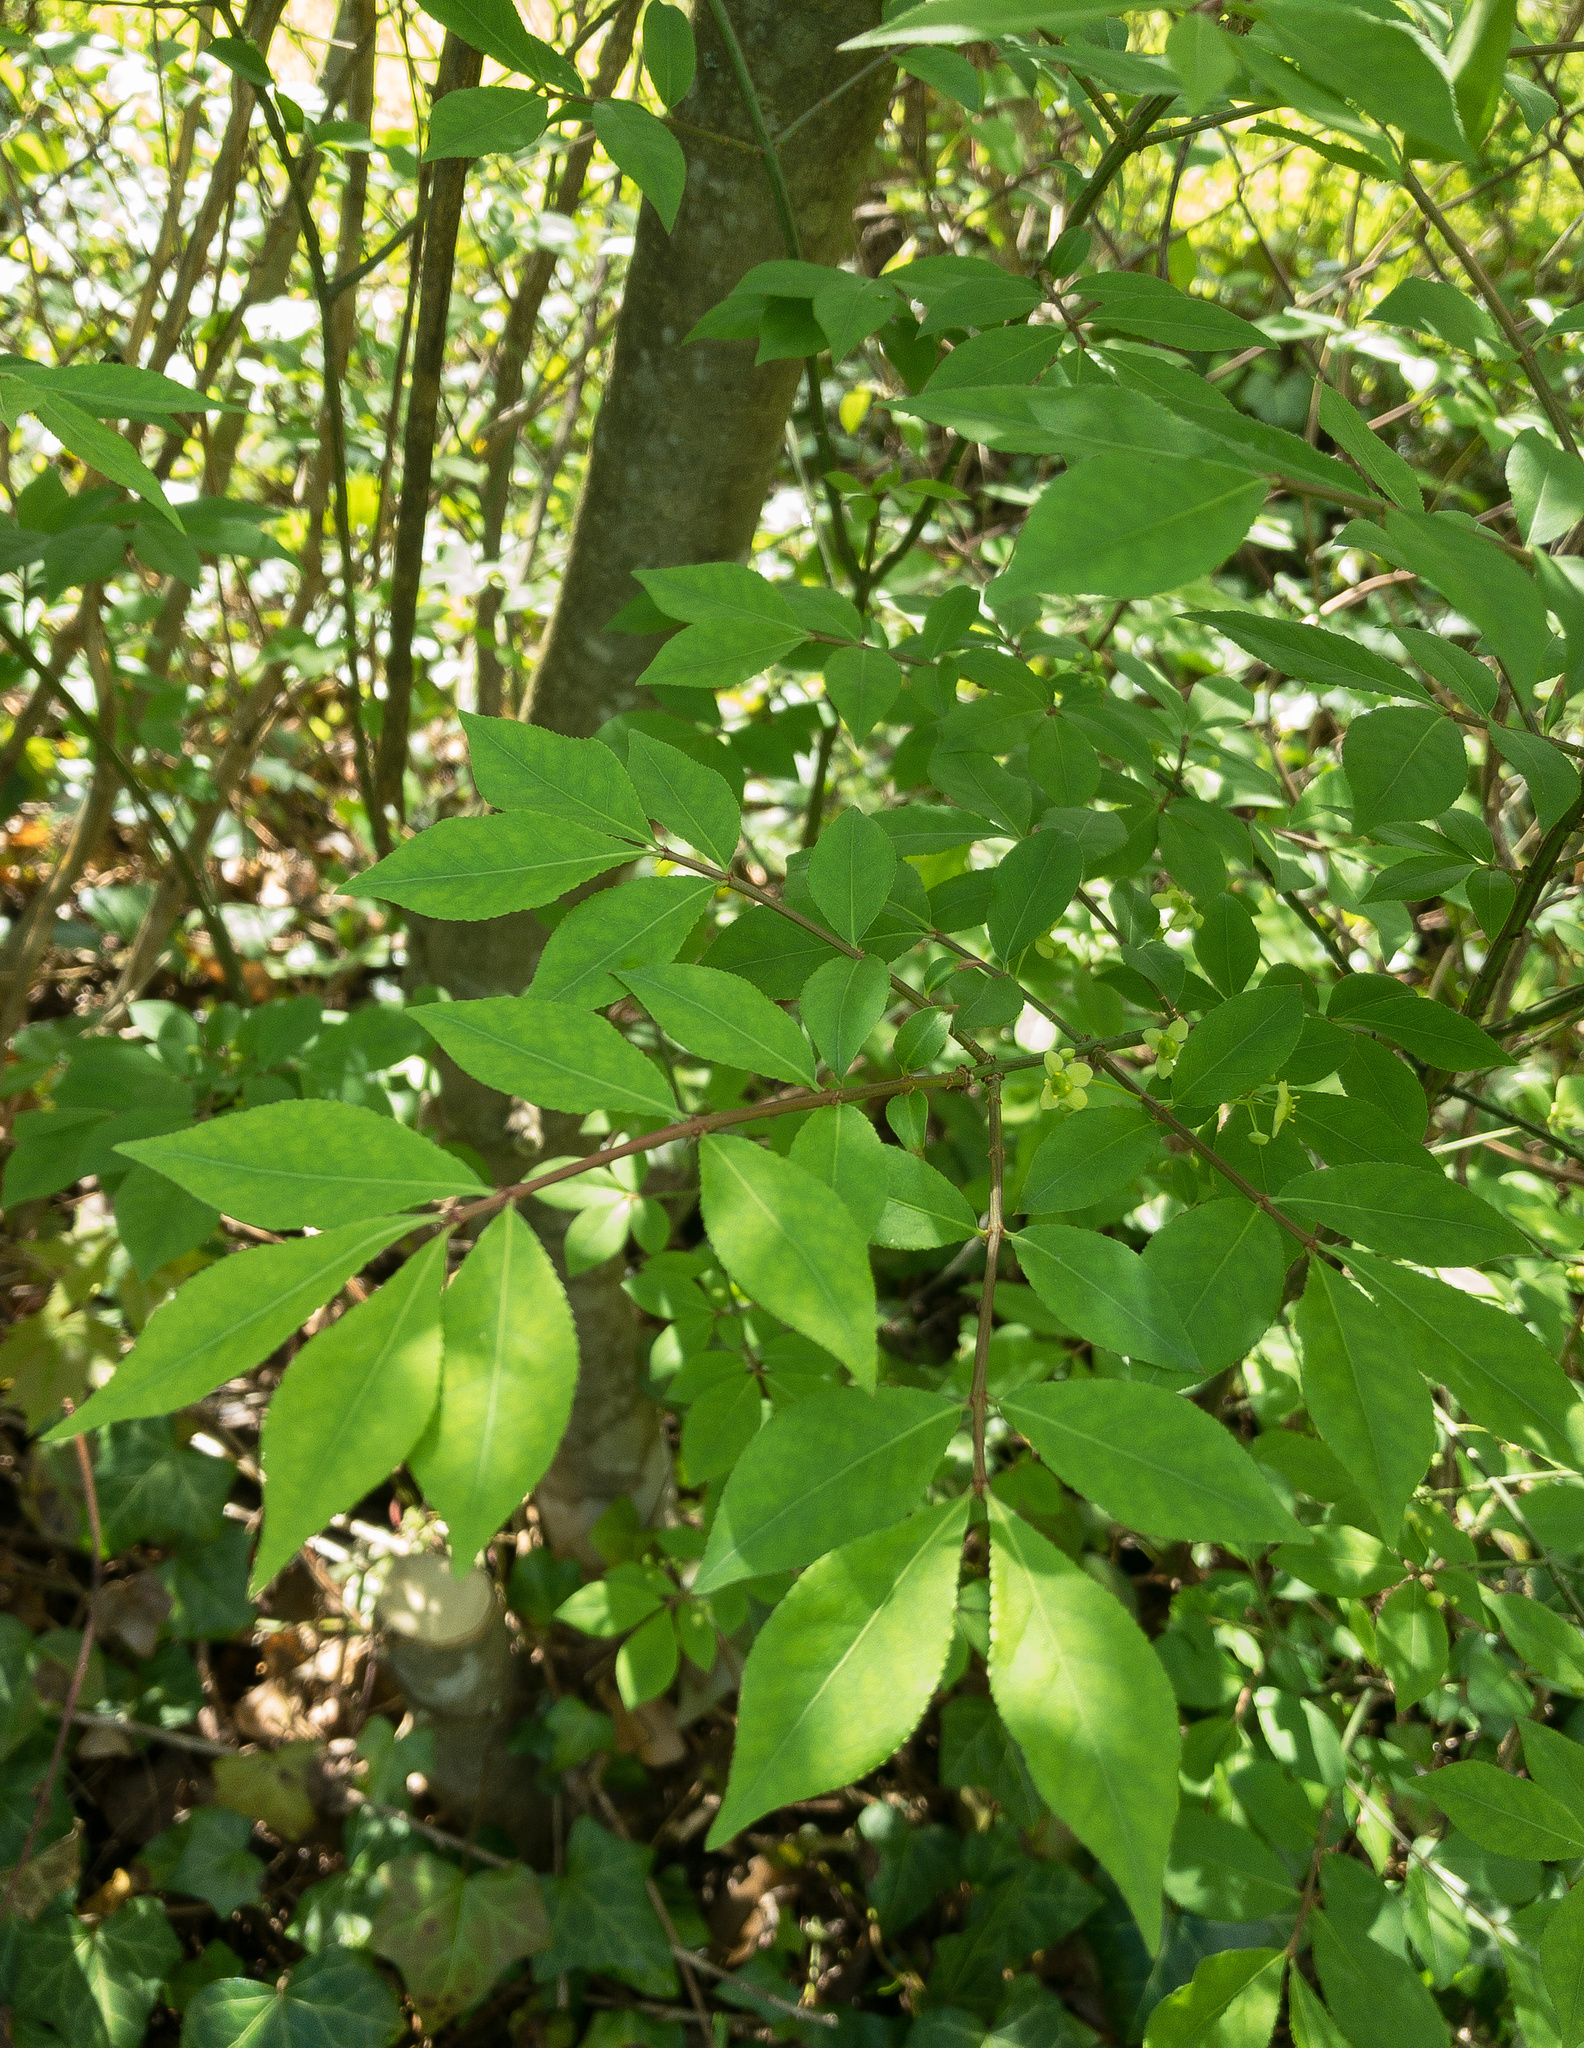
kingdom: Plantae
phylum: Tracheophyta
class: Magnoliopsida
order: Celastrales
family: Celastraceae
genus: Euonymus
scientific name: Euonymus alatus
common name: Winged euonymus
